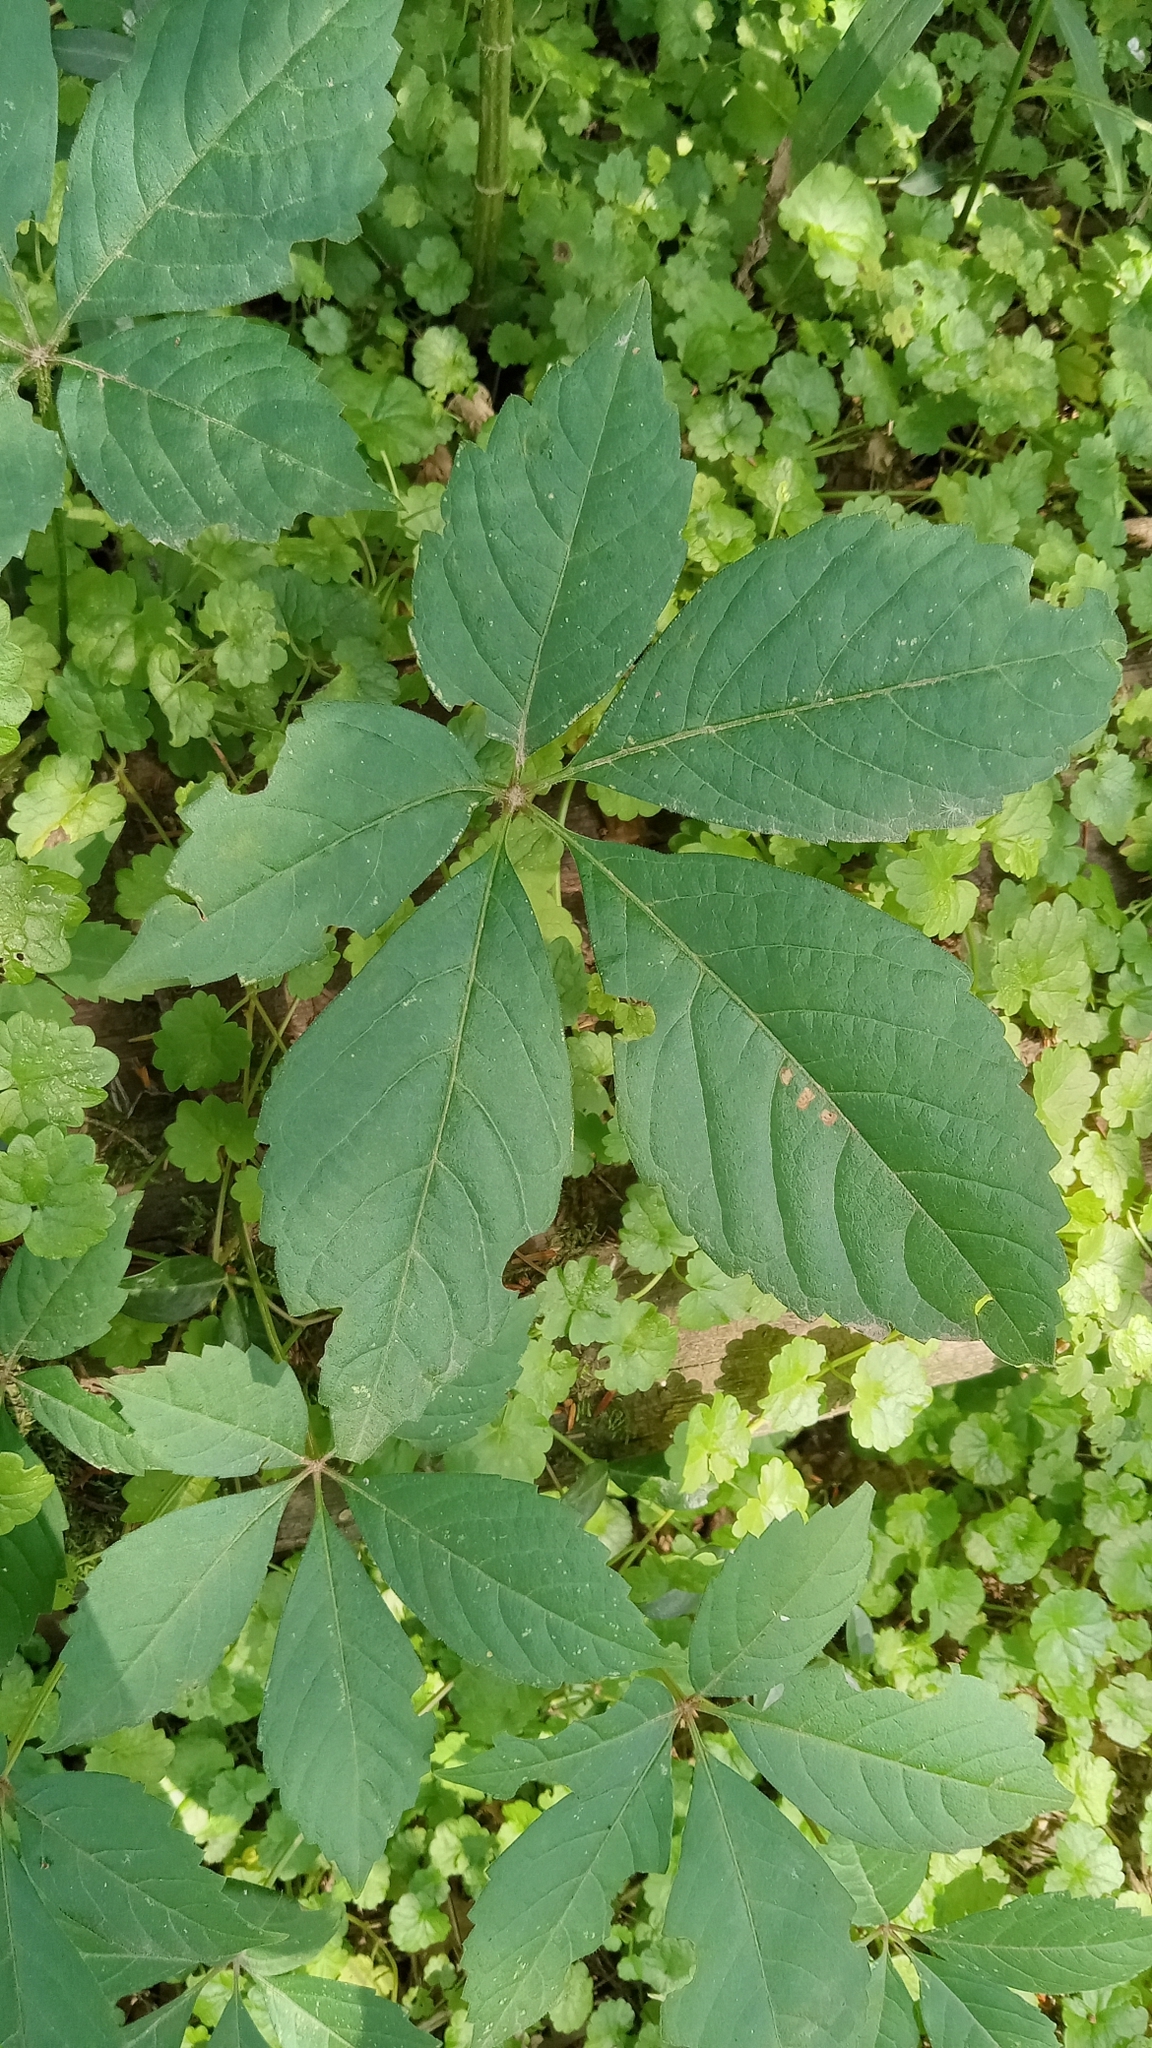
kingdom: Plantae
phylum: Tracheophyta
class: Magnoliopsida
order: Vitales
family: Vitaceae
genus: Parthenocissus
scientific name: Parthenocissus quinquefolia
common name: Virginia-creeper
